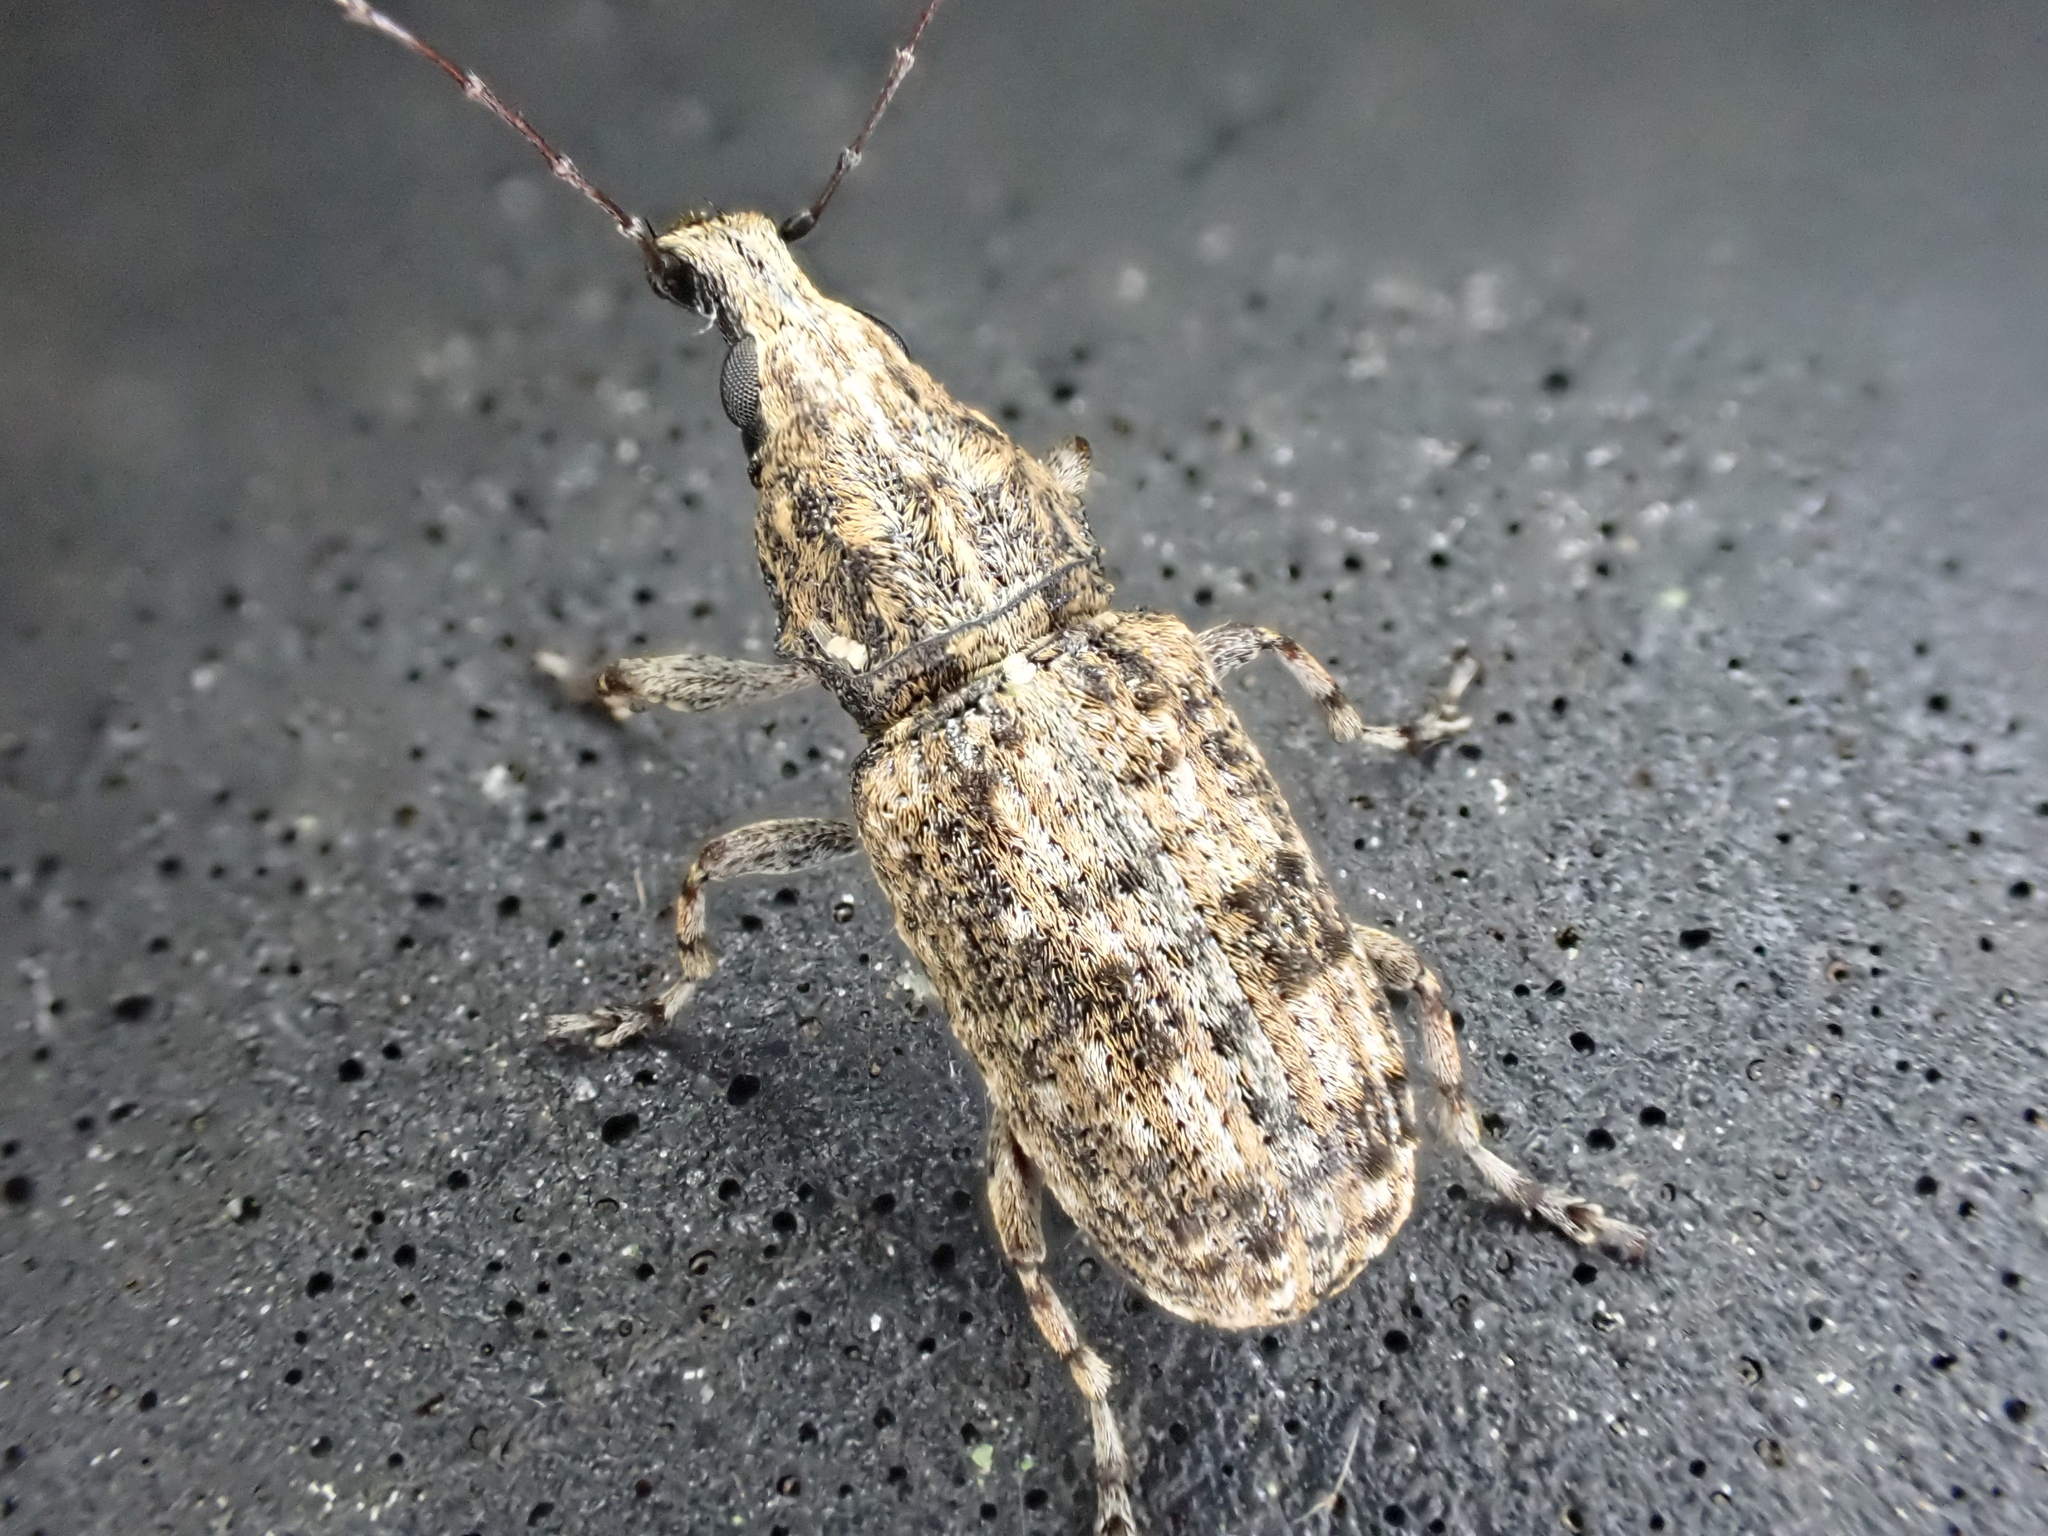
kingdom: Animalia
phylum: Arthropoda
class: Insecta
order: Coleoptera
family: Anthribidae
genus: Meconemus
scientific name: Meconemus infuscatus
